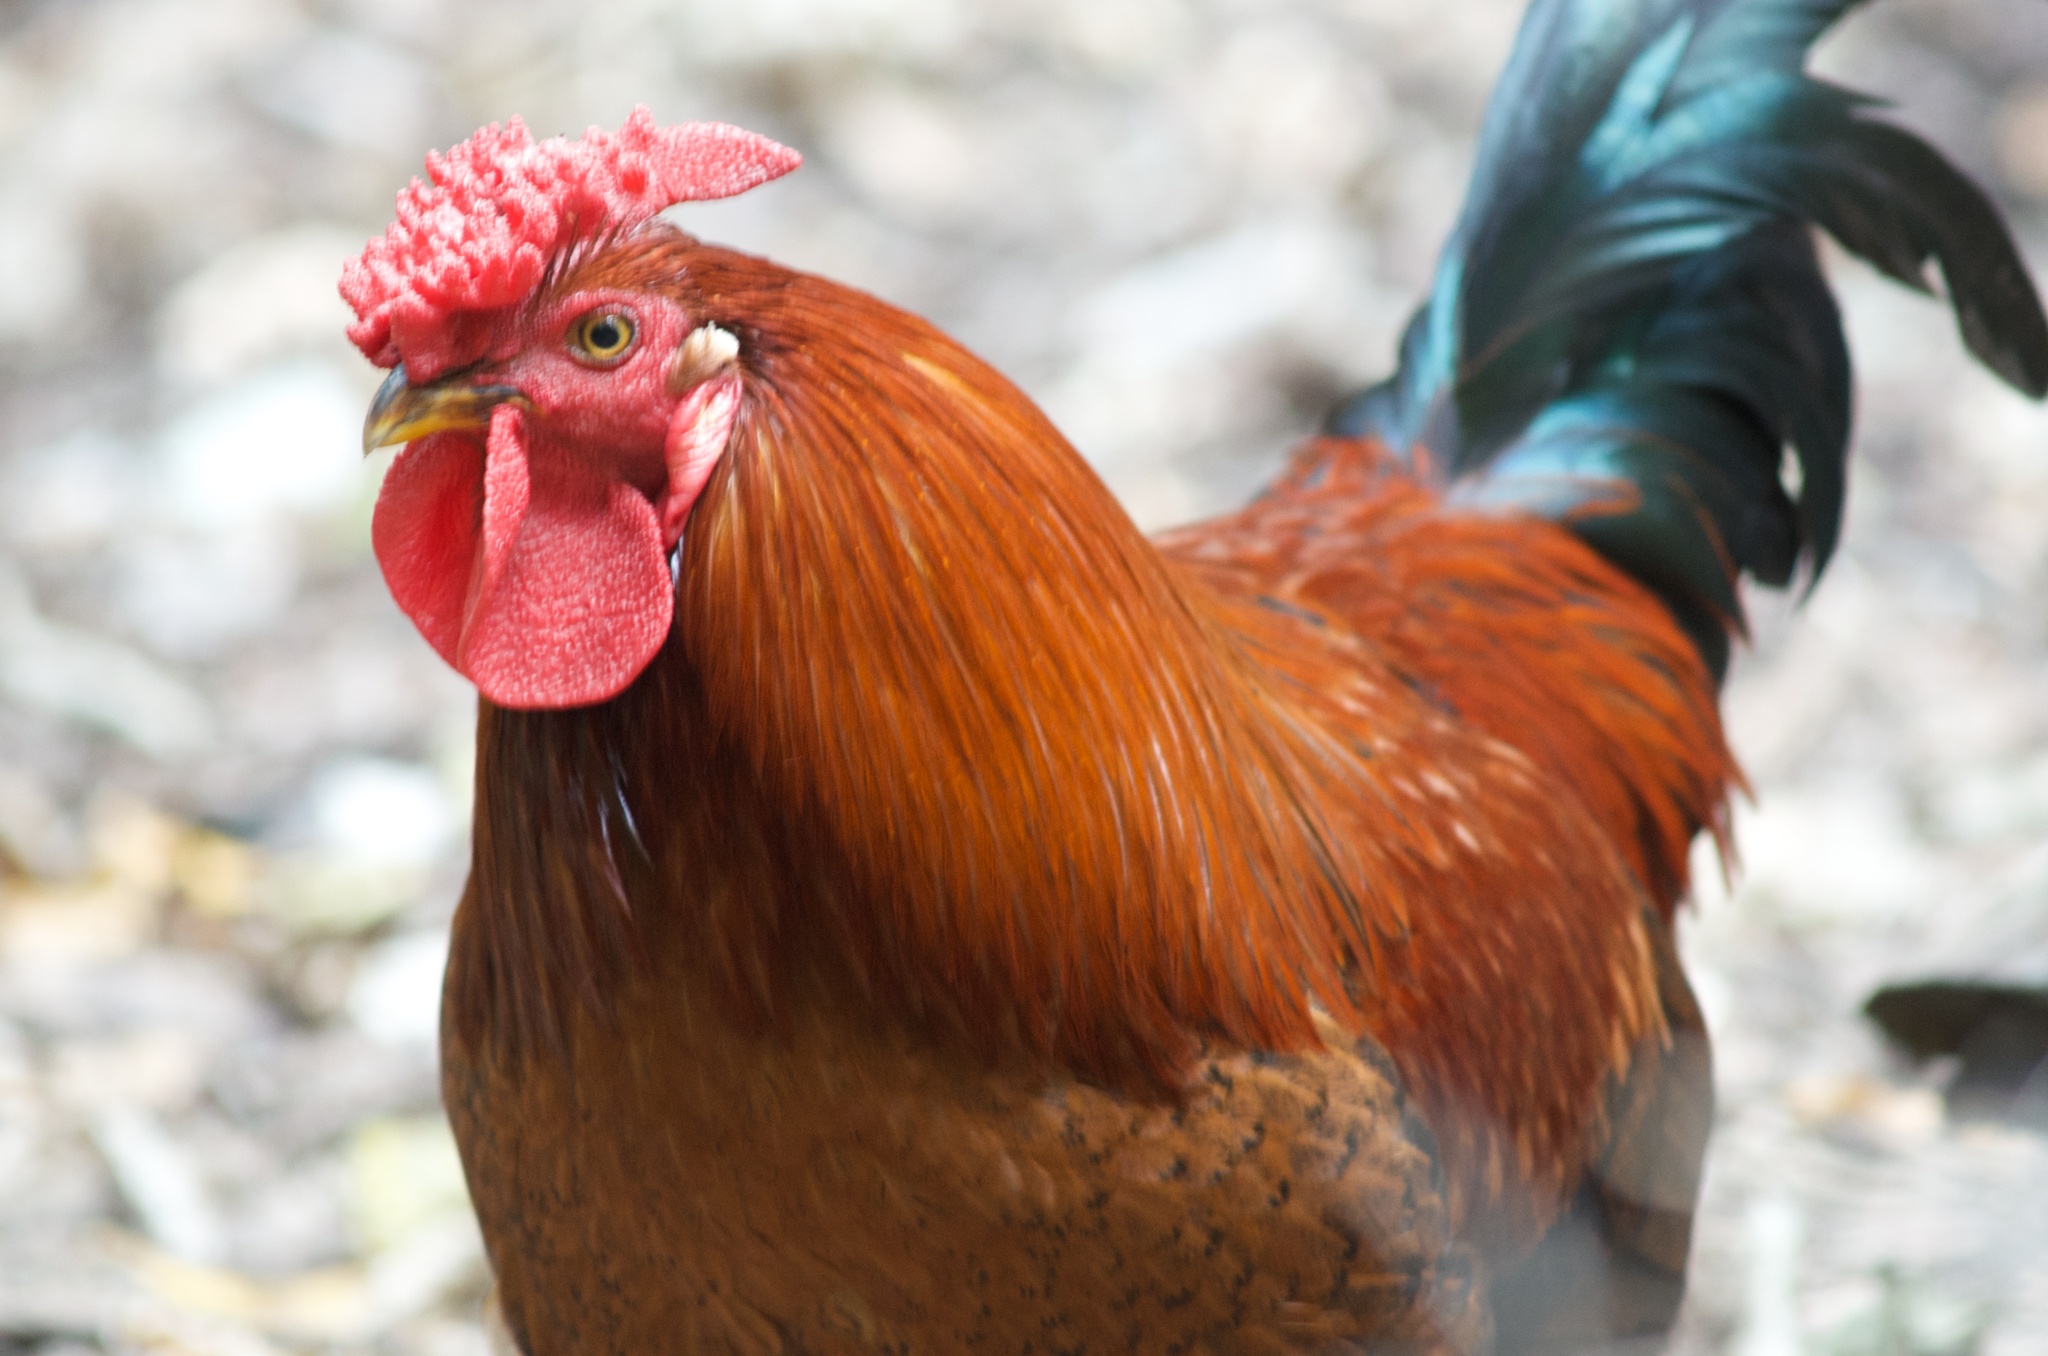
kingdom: Animalia
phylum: Chordata
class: Aves
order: Galliformes
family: Phasianidae
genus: Gallus
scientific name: Gallus gallus
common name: Red junglefowl
